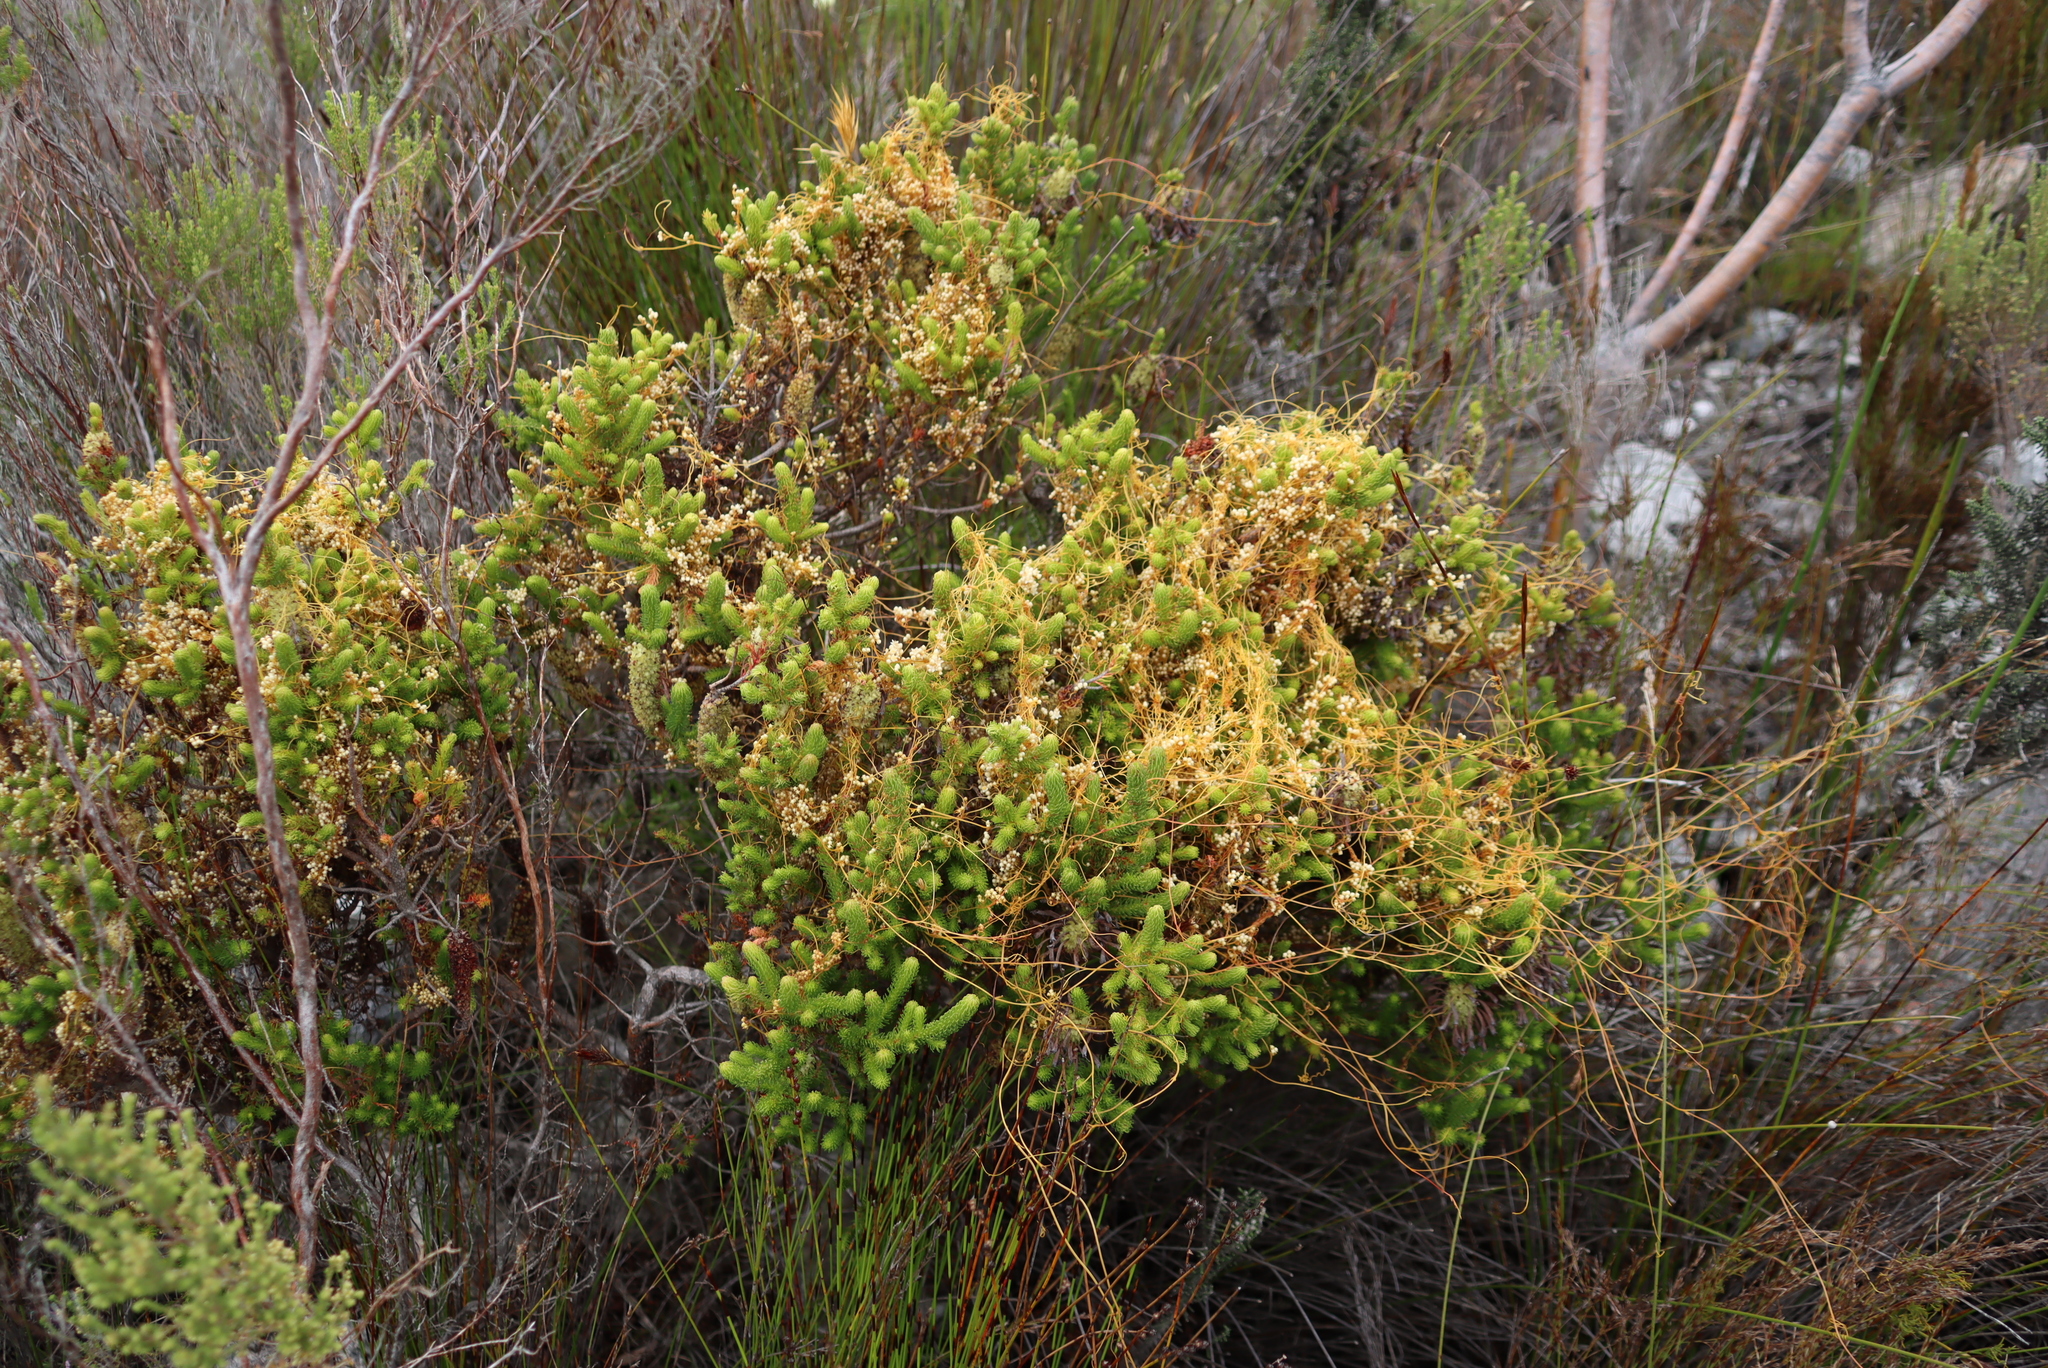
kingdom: Plantae
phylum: Tracheophyta
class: Magnoliopsida
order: Ericales
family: Ericaceae
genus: Erica
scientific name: Erica sessiliflora
